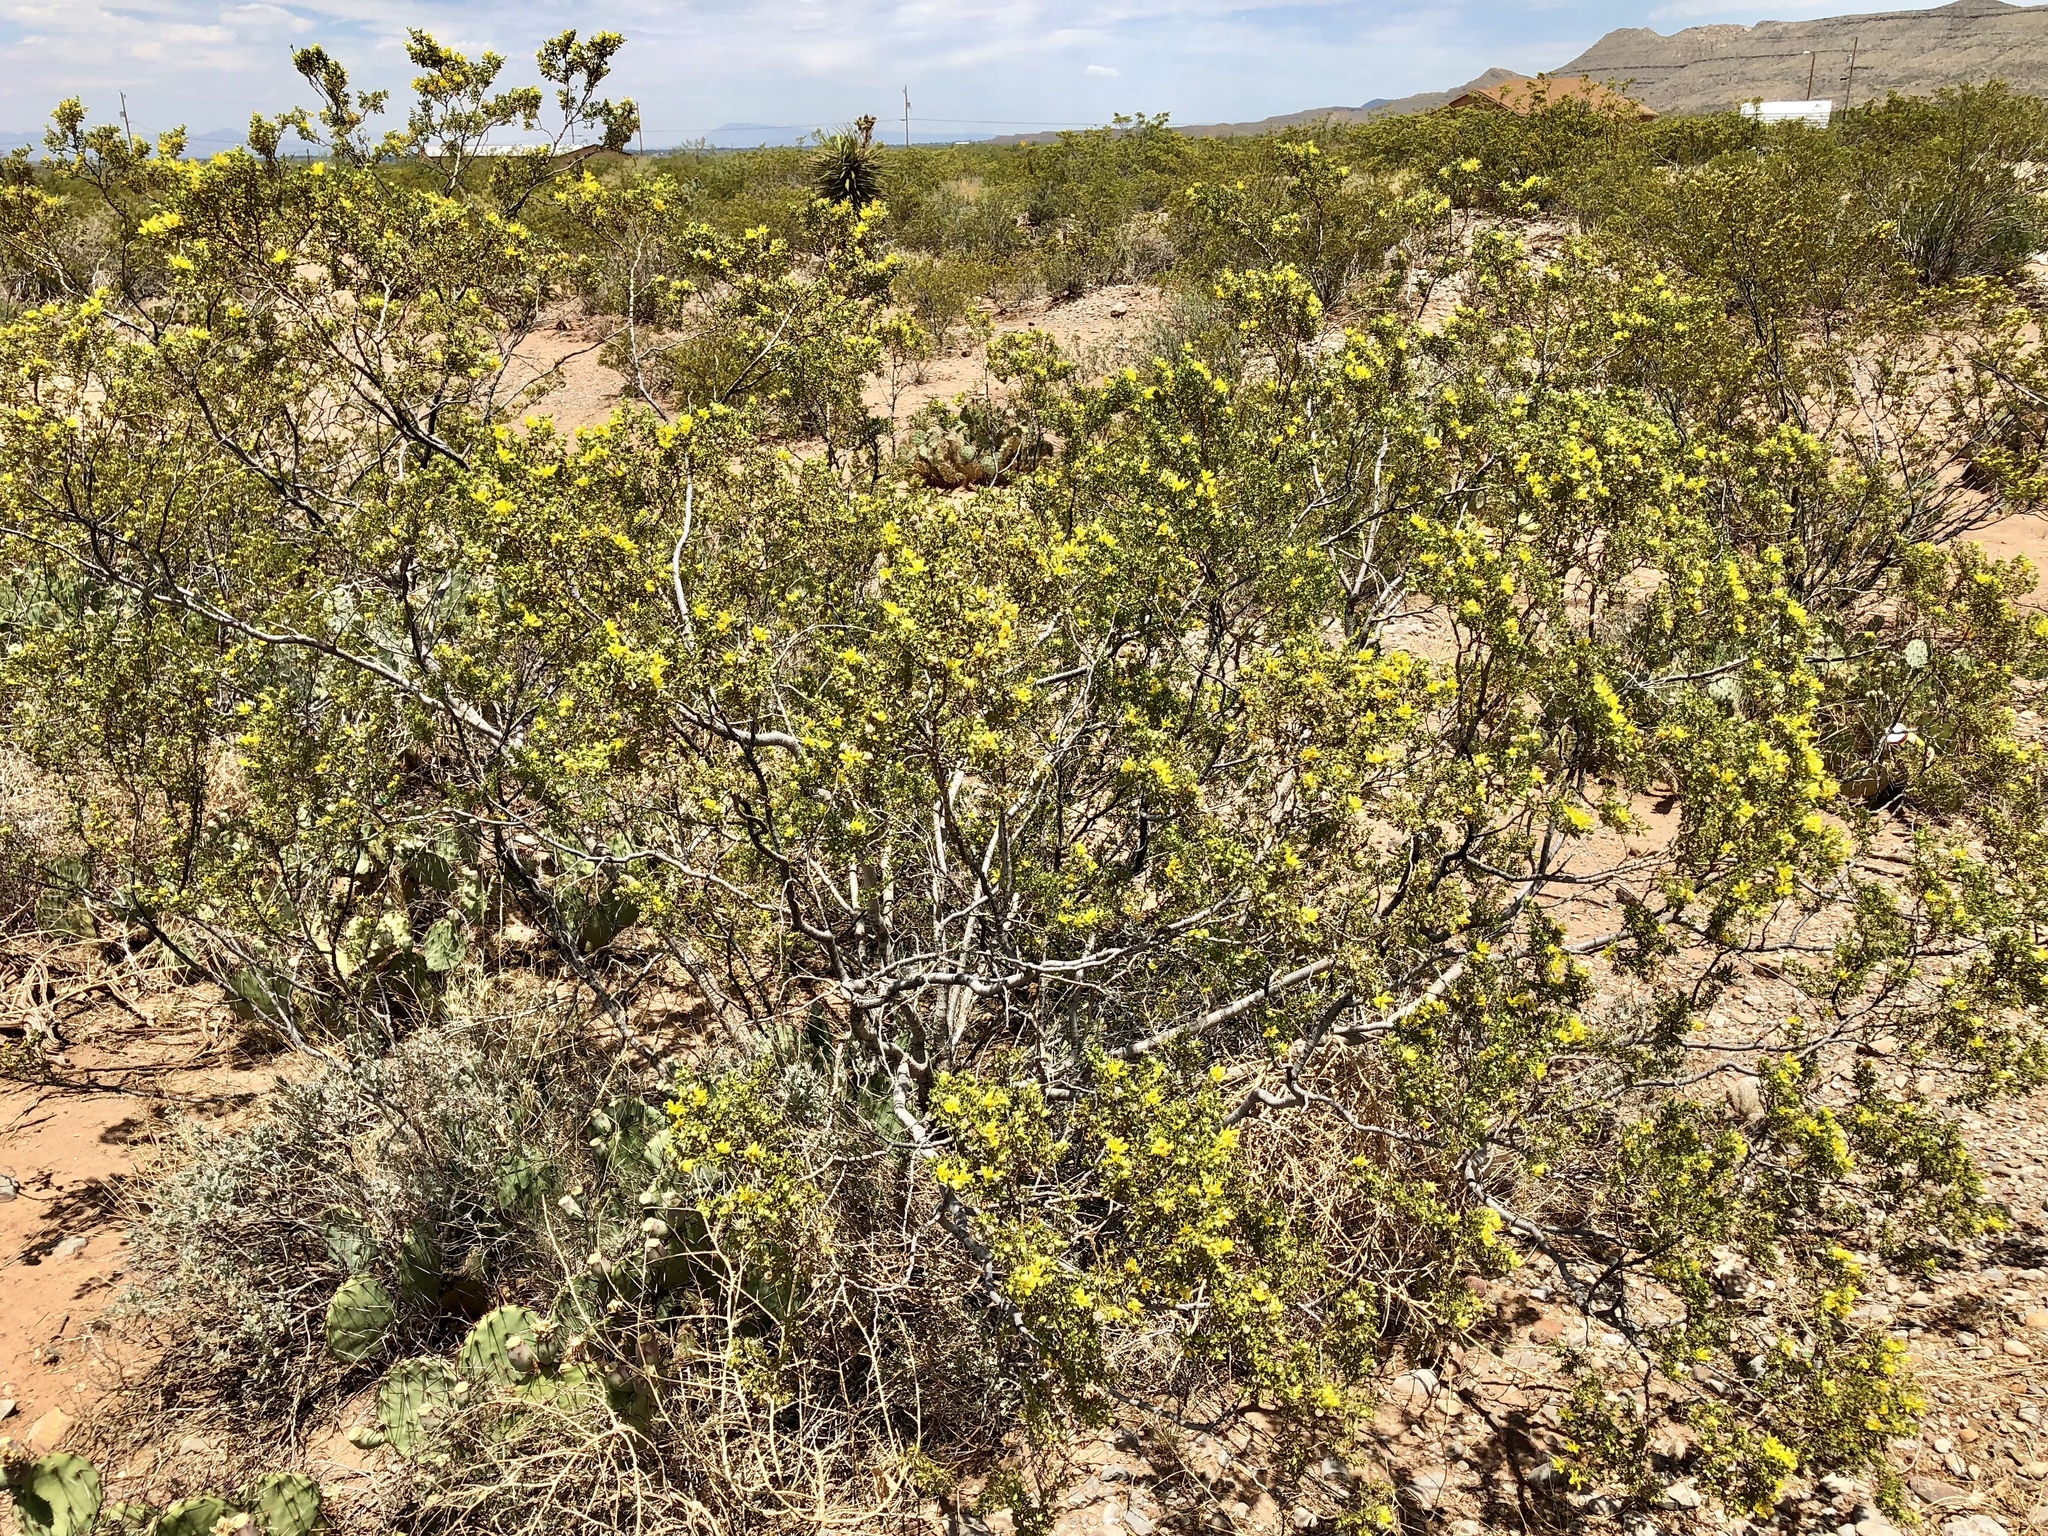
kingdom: Plantae
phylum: Tracheophyta
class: Magnoliopsida
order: Zygophyllales
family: Zygophyllaceae
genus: Larrea
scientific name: Larrea tridentata
